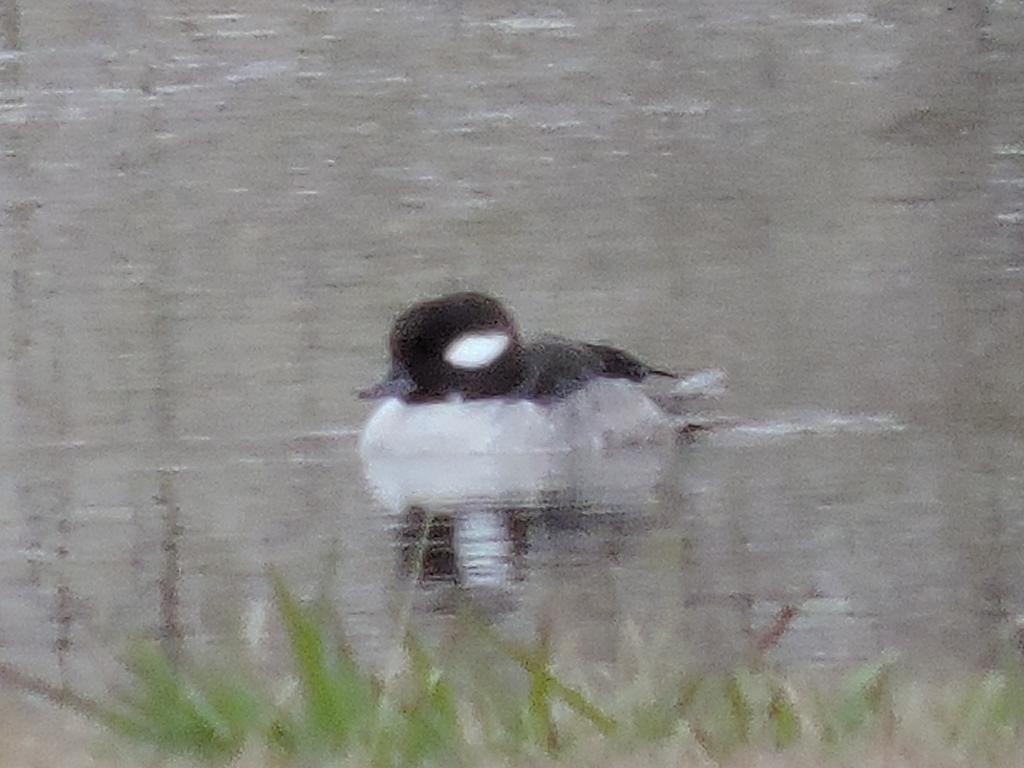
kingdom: Animalia
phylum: Chordata
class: Aves
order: Anseriformes
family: Anatidae
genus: Bucephala
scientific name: Bucephala albeola
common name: Bufflehead
